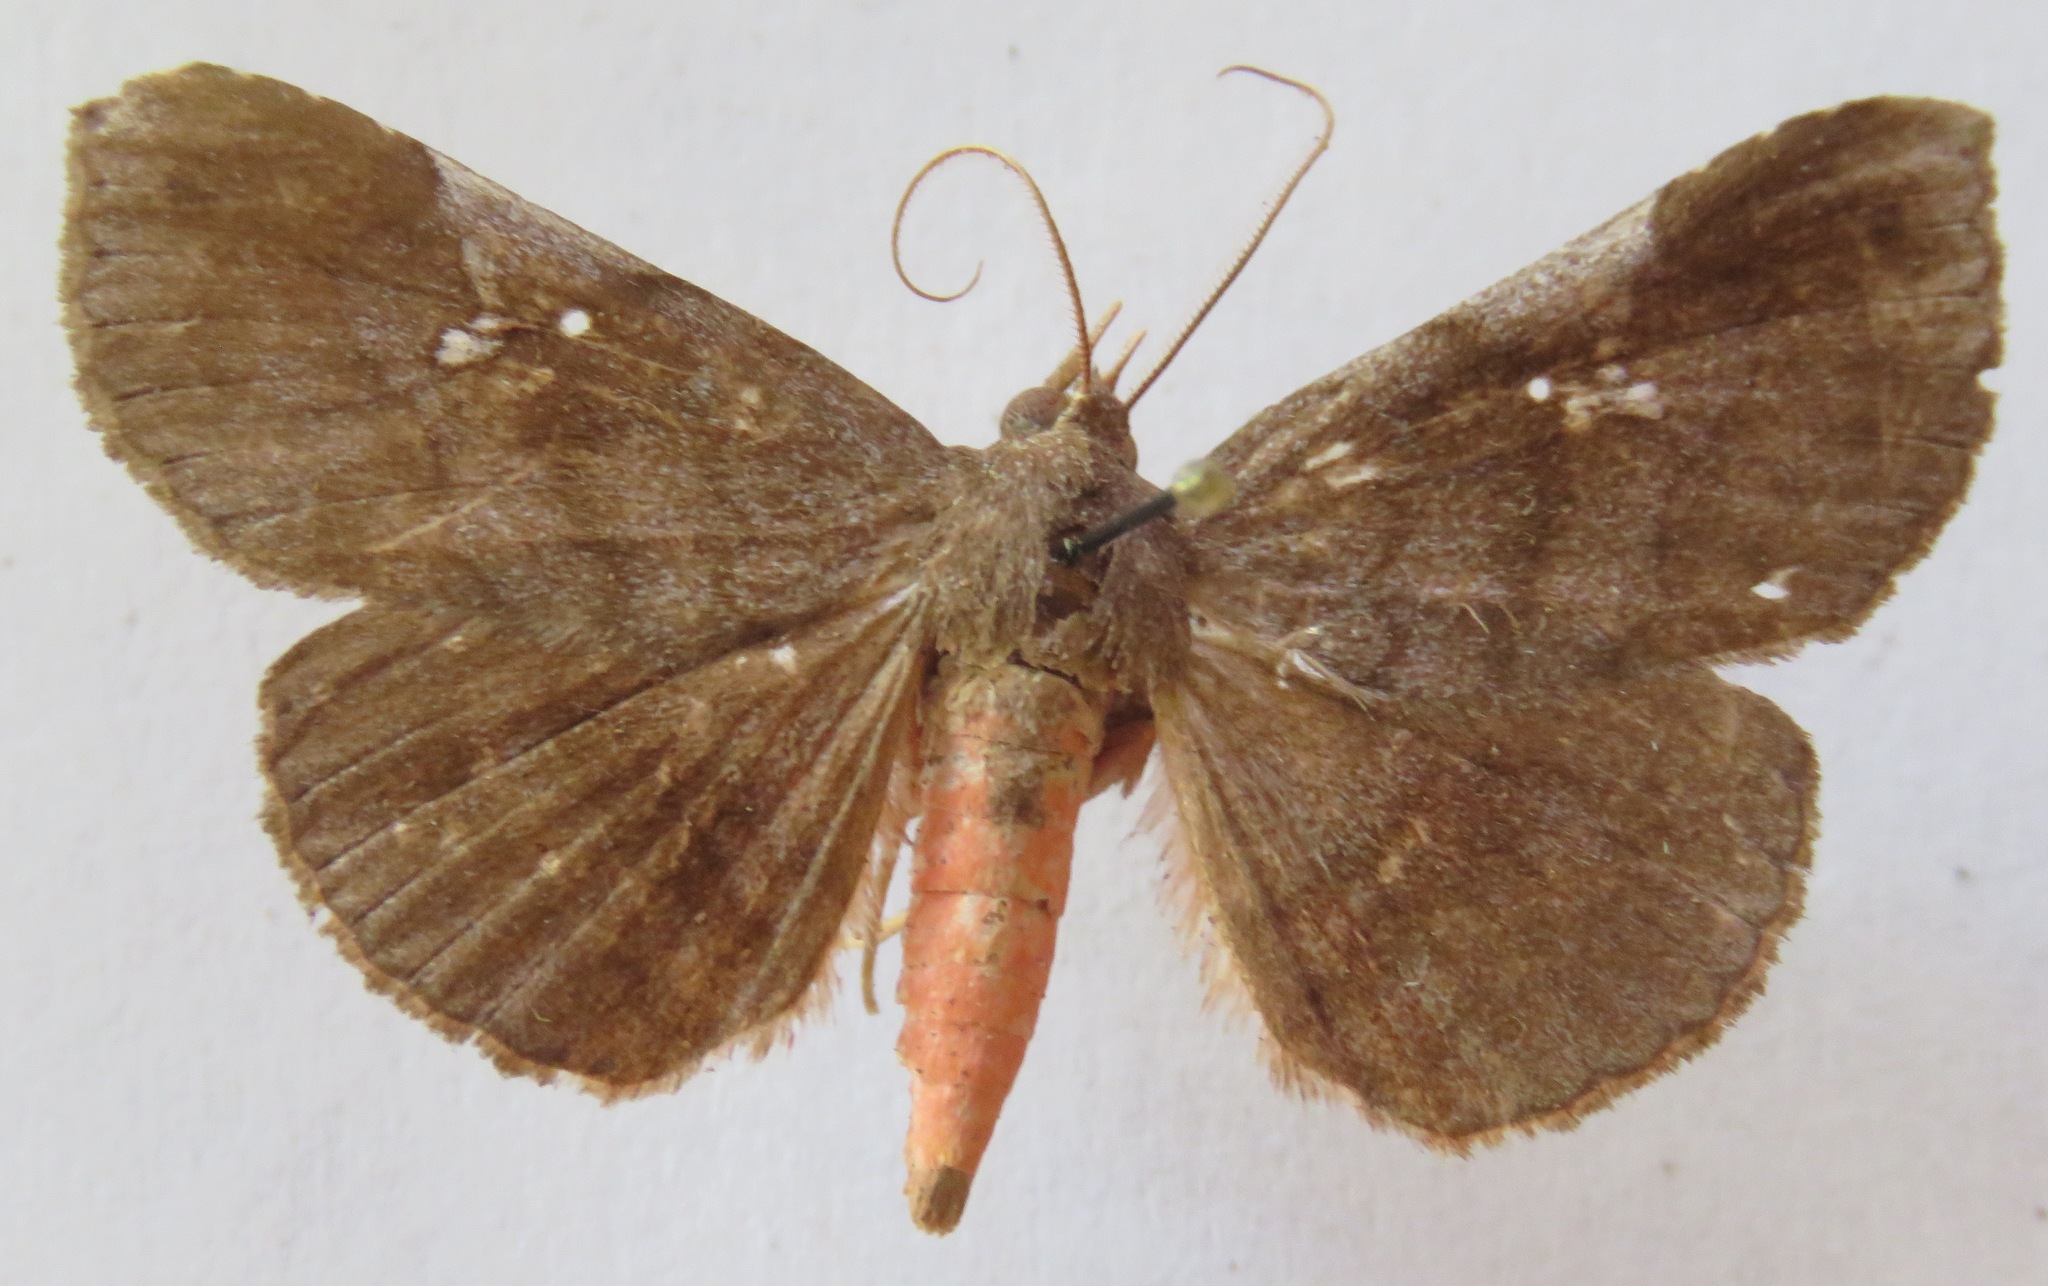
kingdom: Animalia
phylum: Arthropoda
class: Insecta
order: Lepidoptera
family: Erebidae
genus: Azeta
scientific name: Azeta melanea
